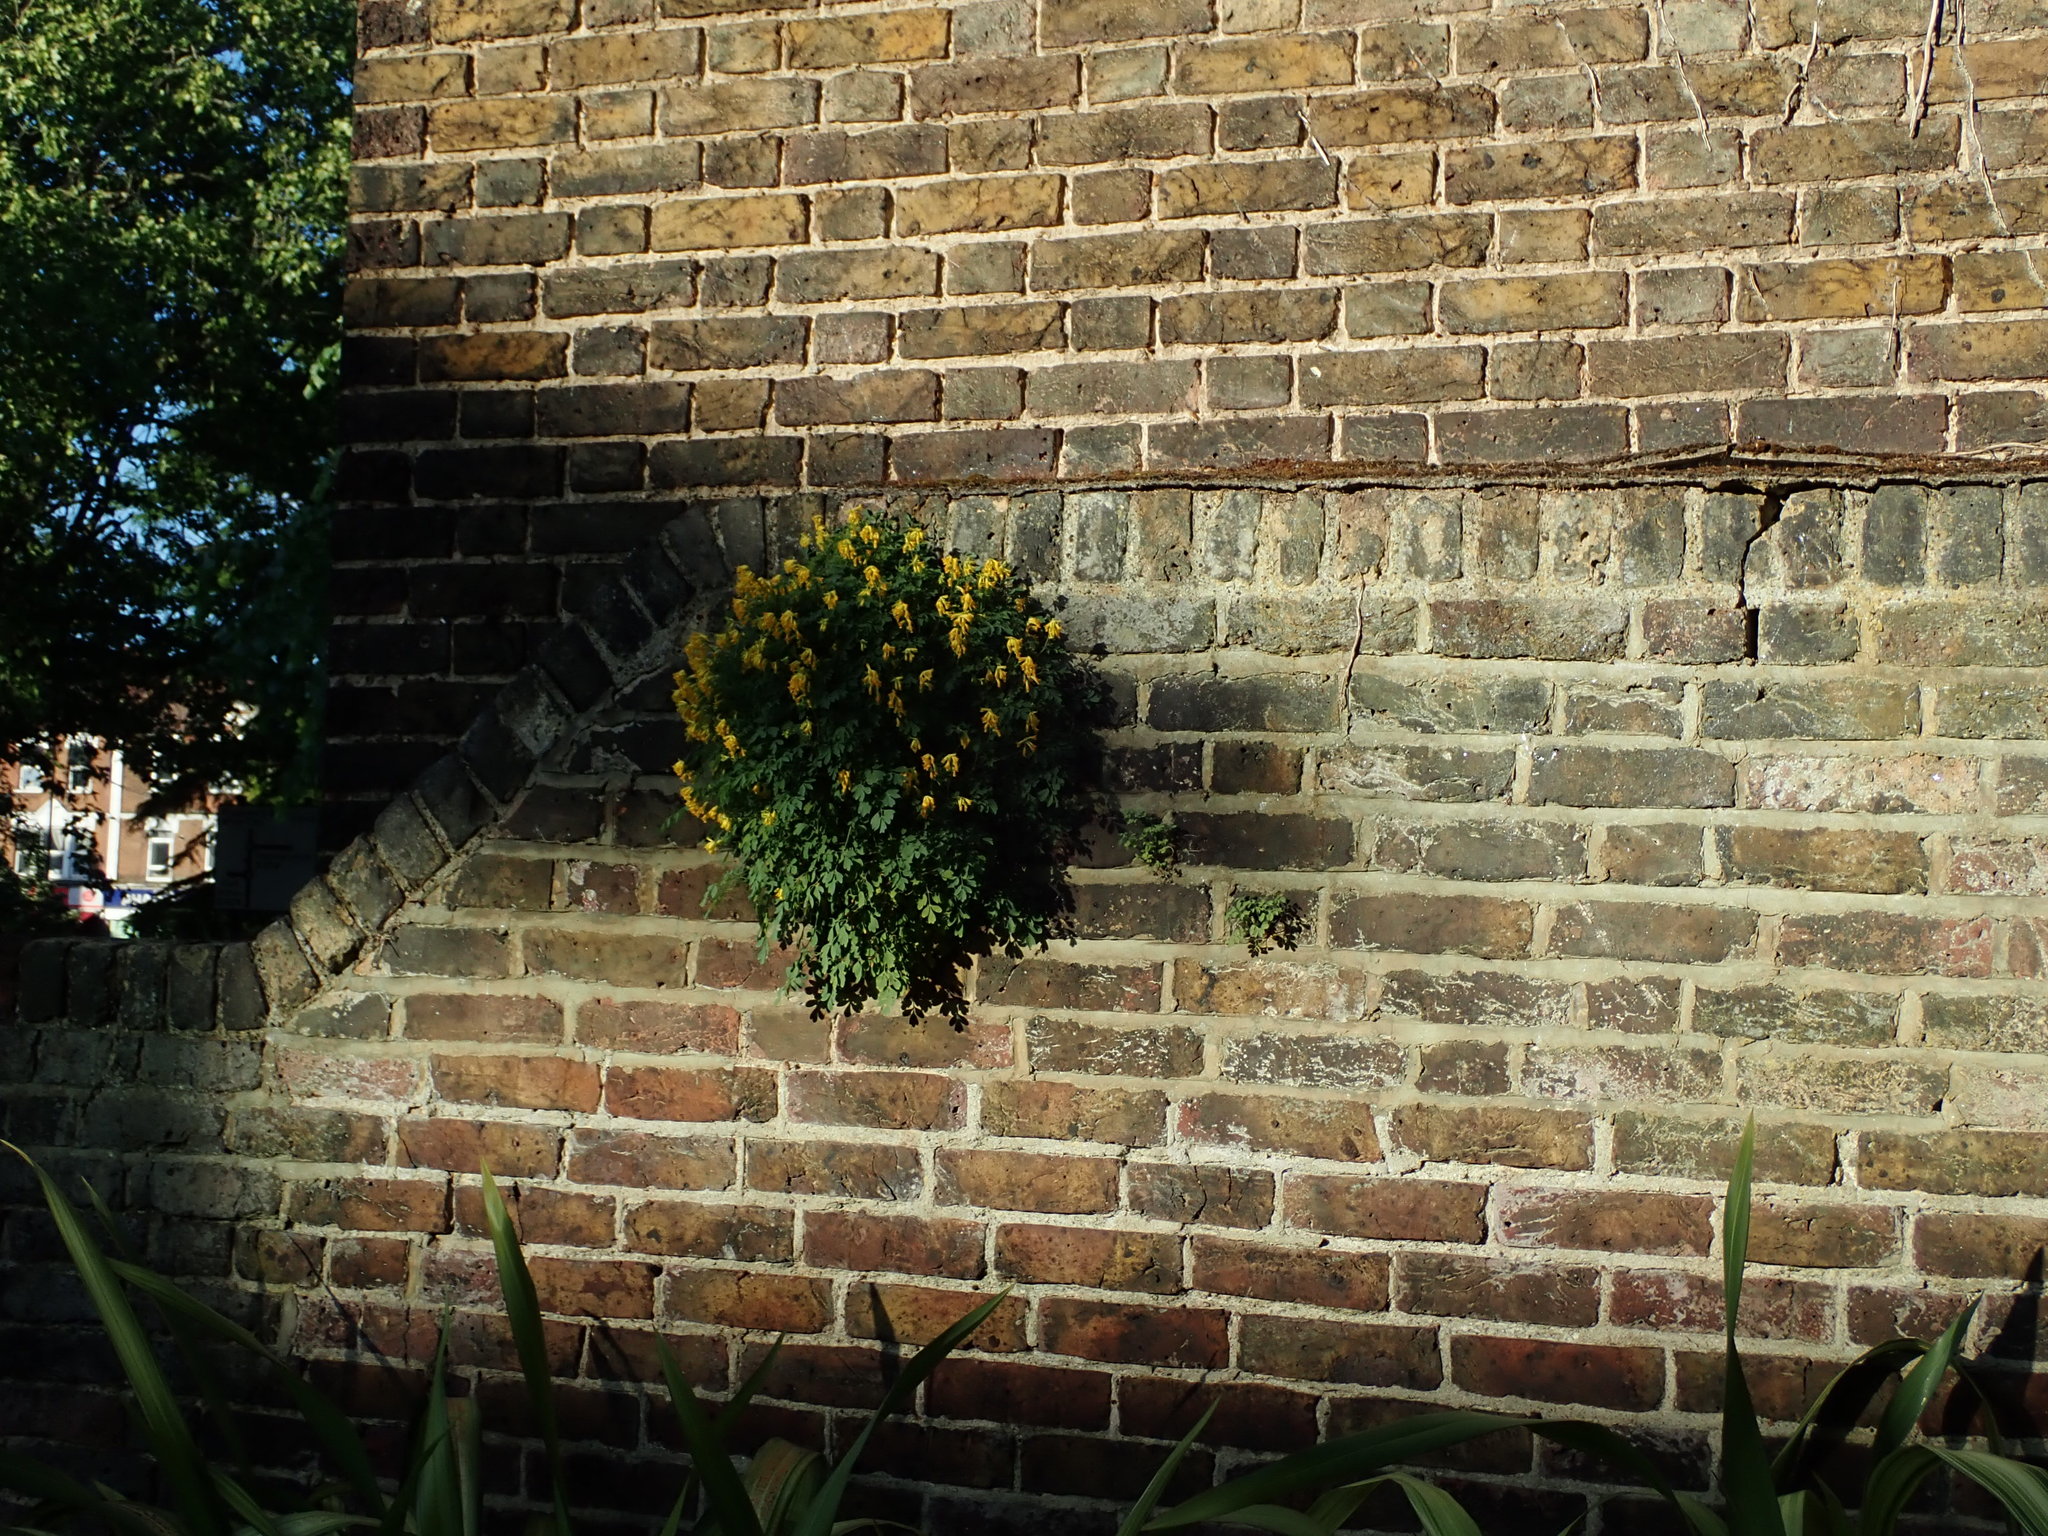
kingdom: Plantae
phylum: Tracheophyta
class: Magnoliopsida
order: Ranunculales
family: Papaveraceae
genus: Pseudofumaria
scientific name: Pseudofumaria lutea
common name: Yellow corydalis
